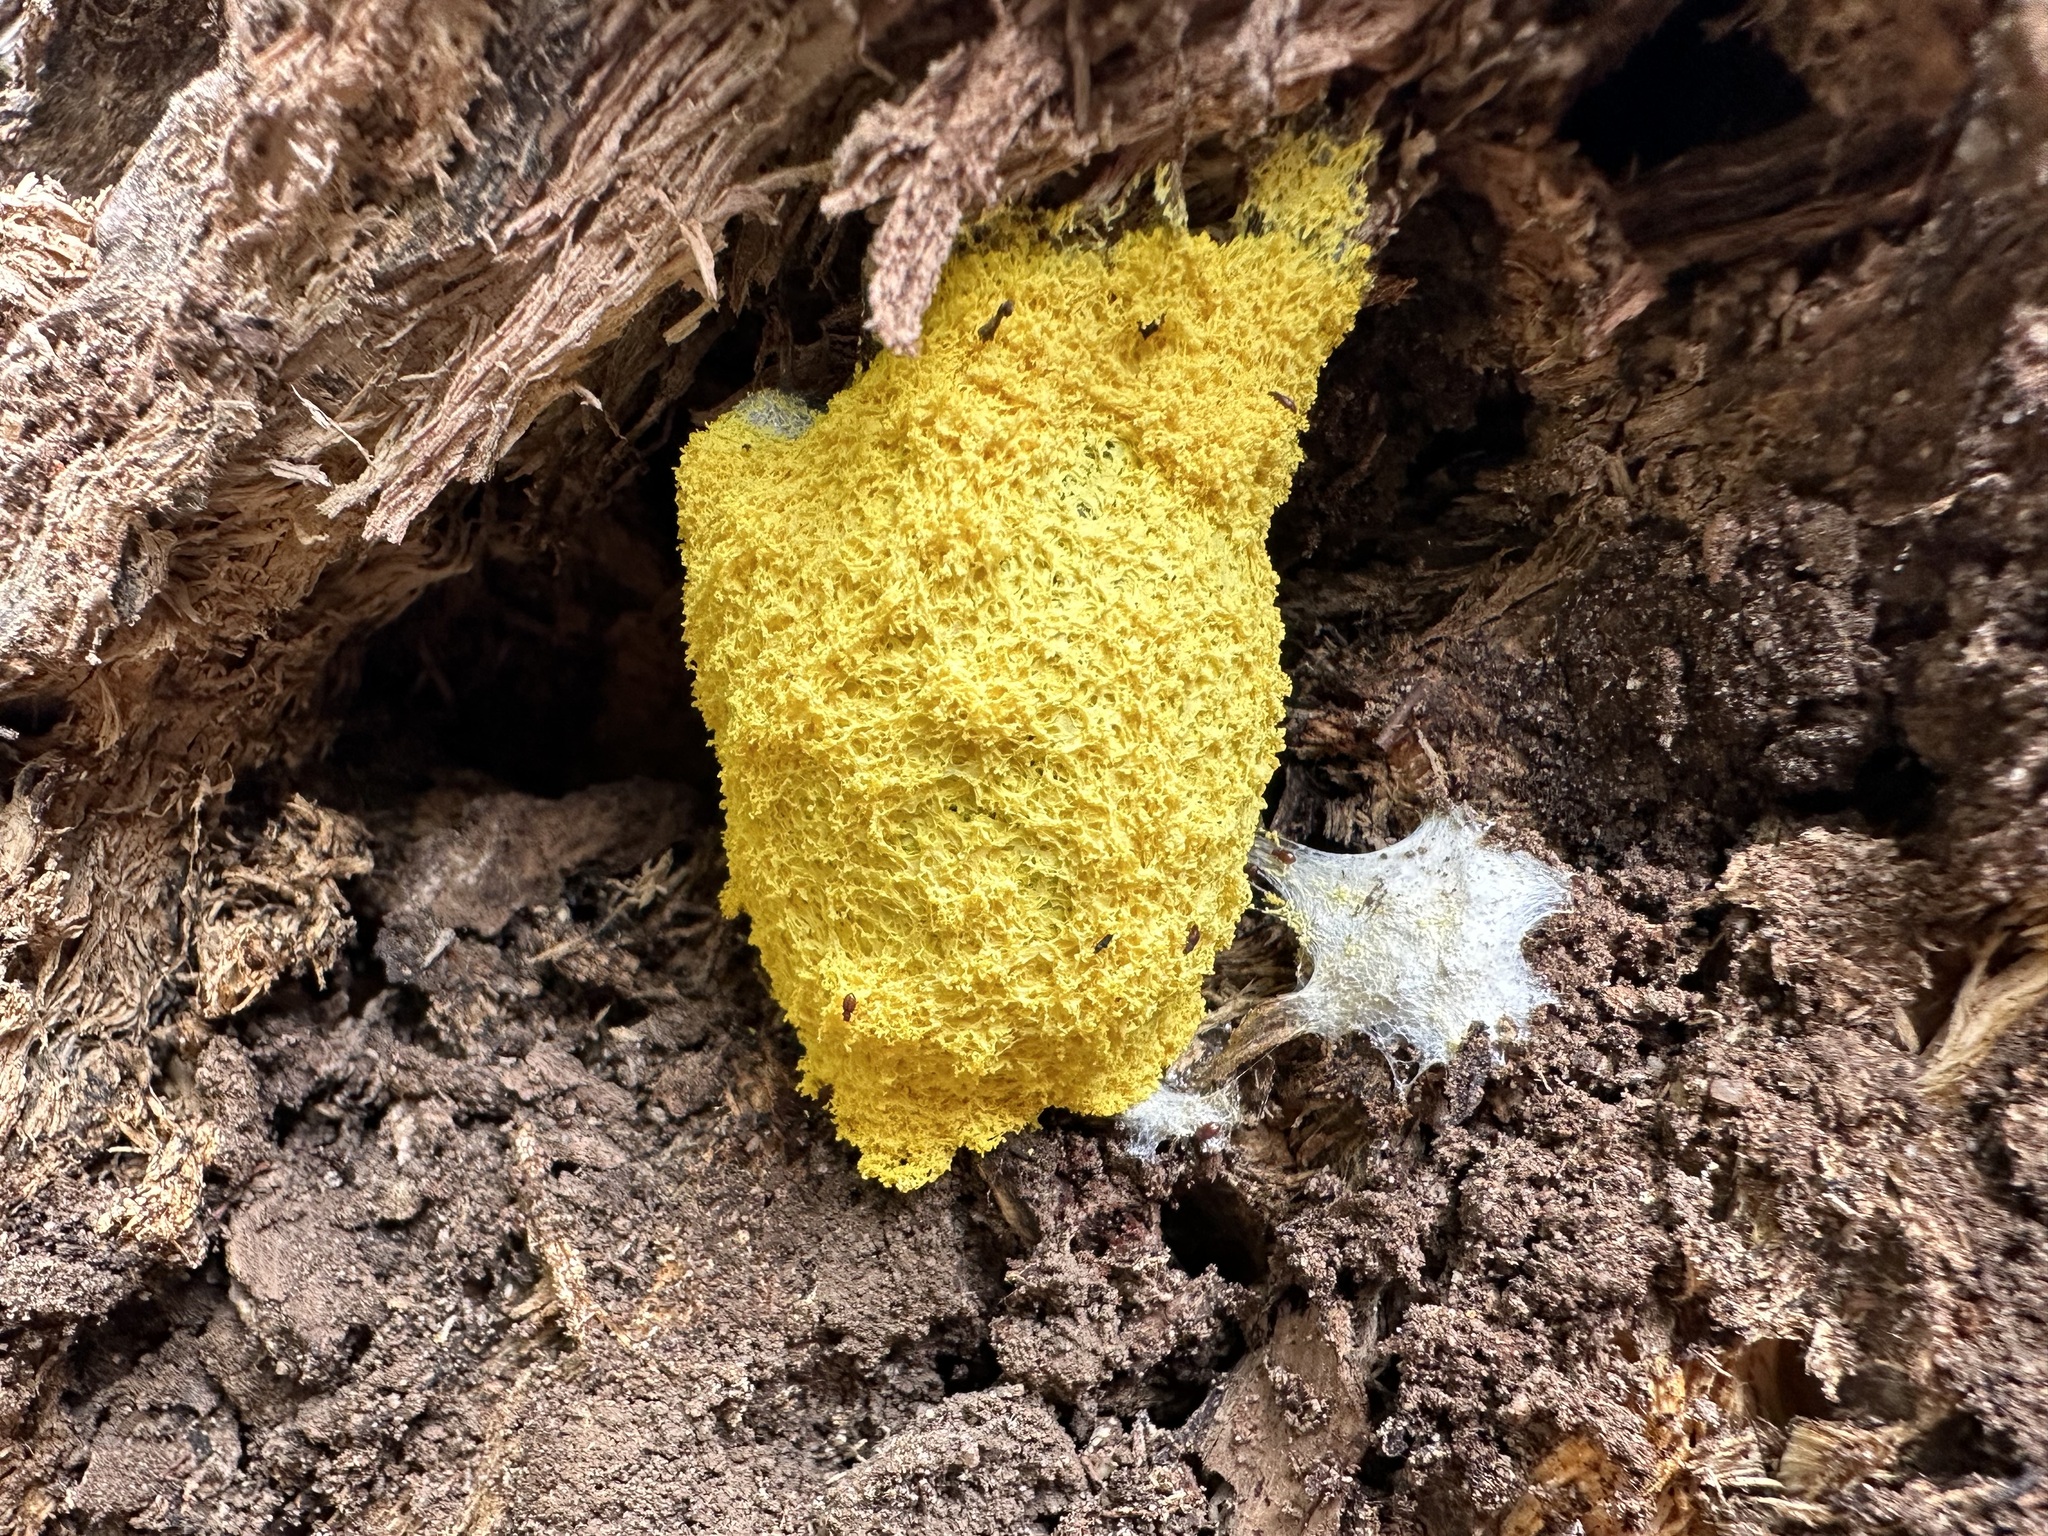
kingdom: Protozoa
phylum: Mycetozoa
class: Myxomycetes
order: Physarales
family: Physaraceae
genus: Fuligo
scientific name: Fuligo septica
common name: Dog vomit slime mold
